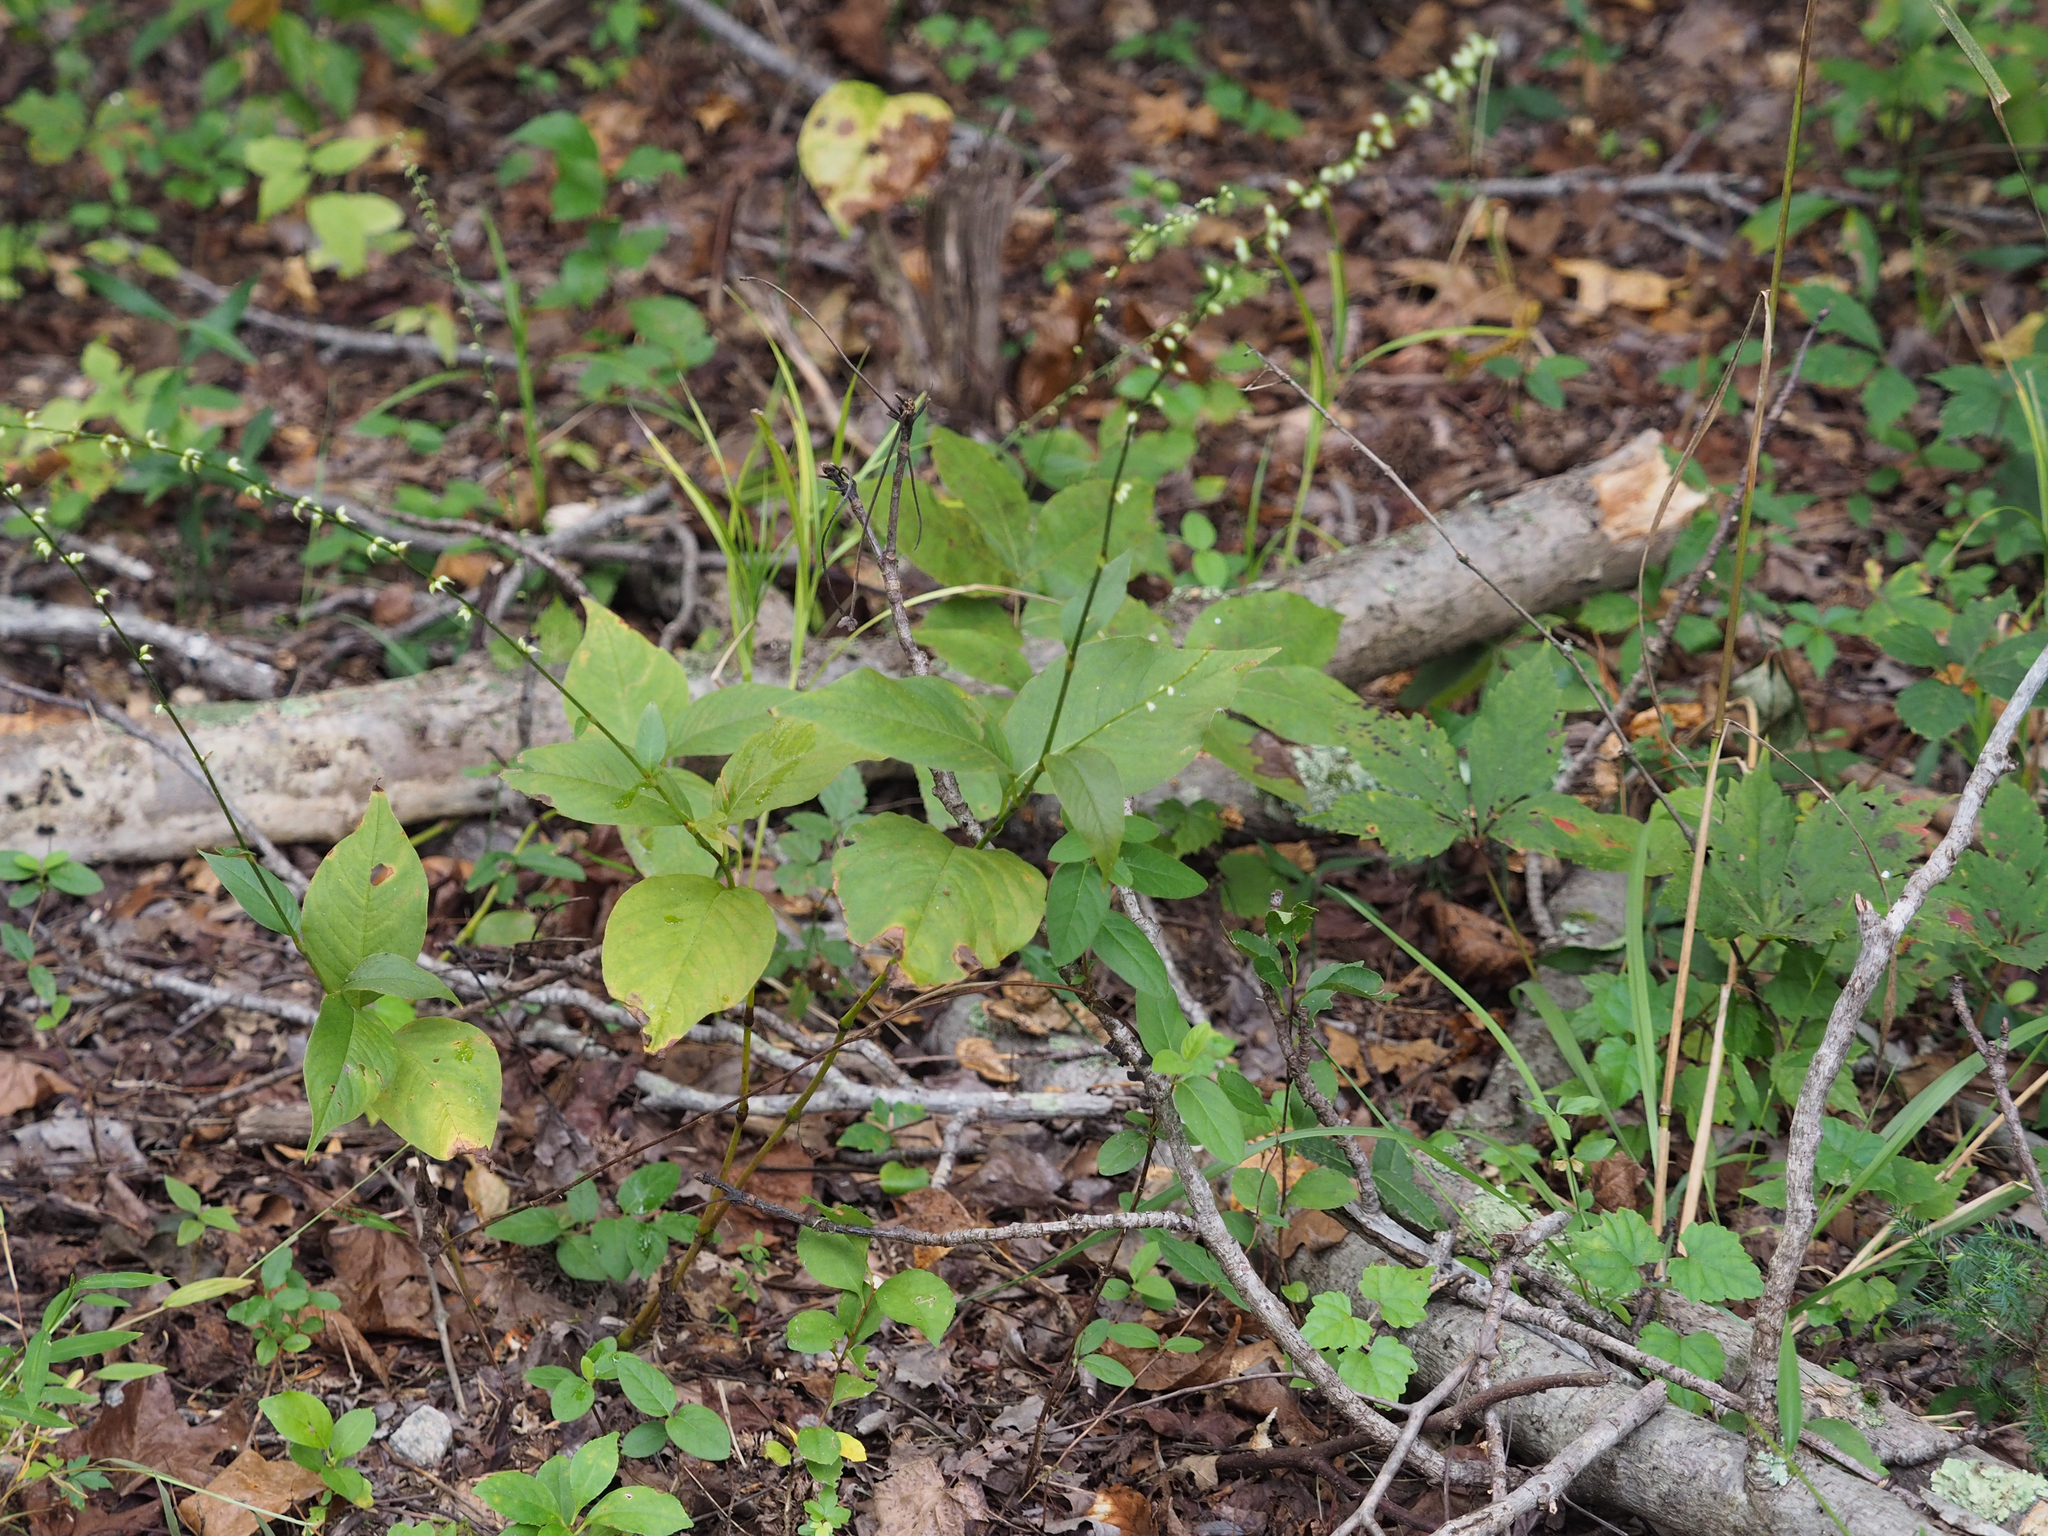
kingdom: Plantae
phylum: Tracheophyta
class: Magnoliopsida
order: Caryophyllales
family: Polygonaceae
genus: Persicaria
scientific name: Persicaria virginiana
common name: Jumpseed
